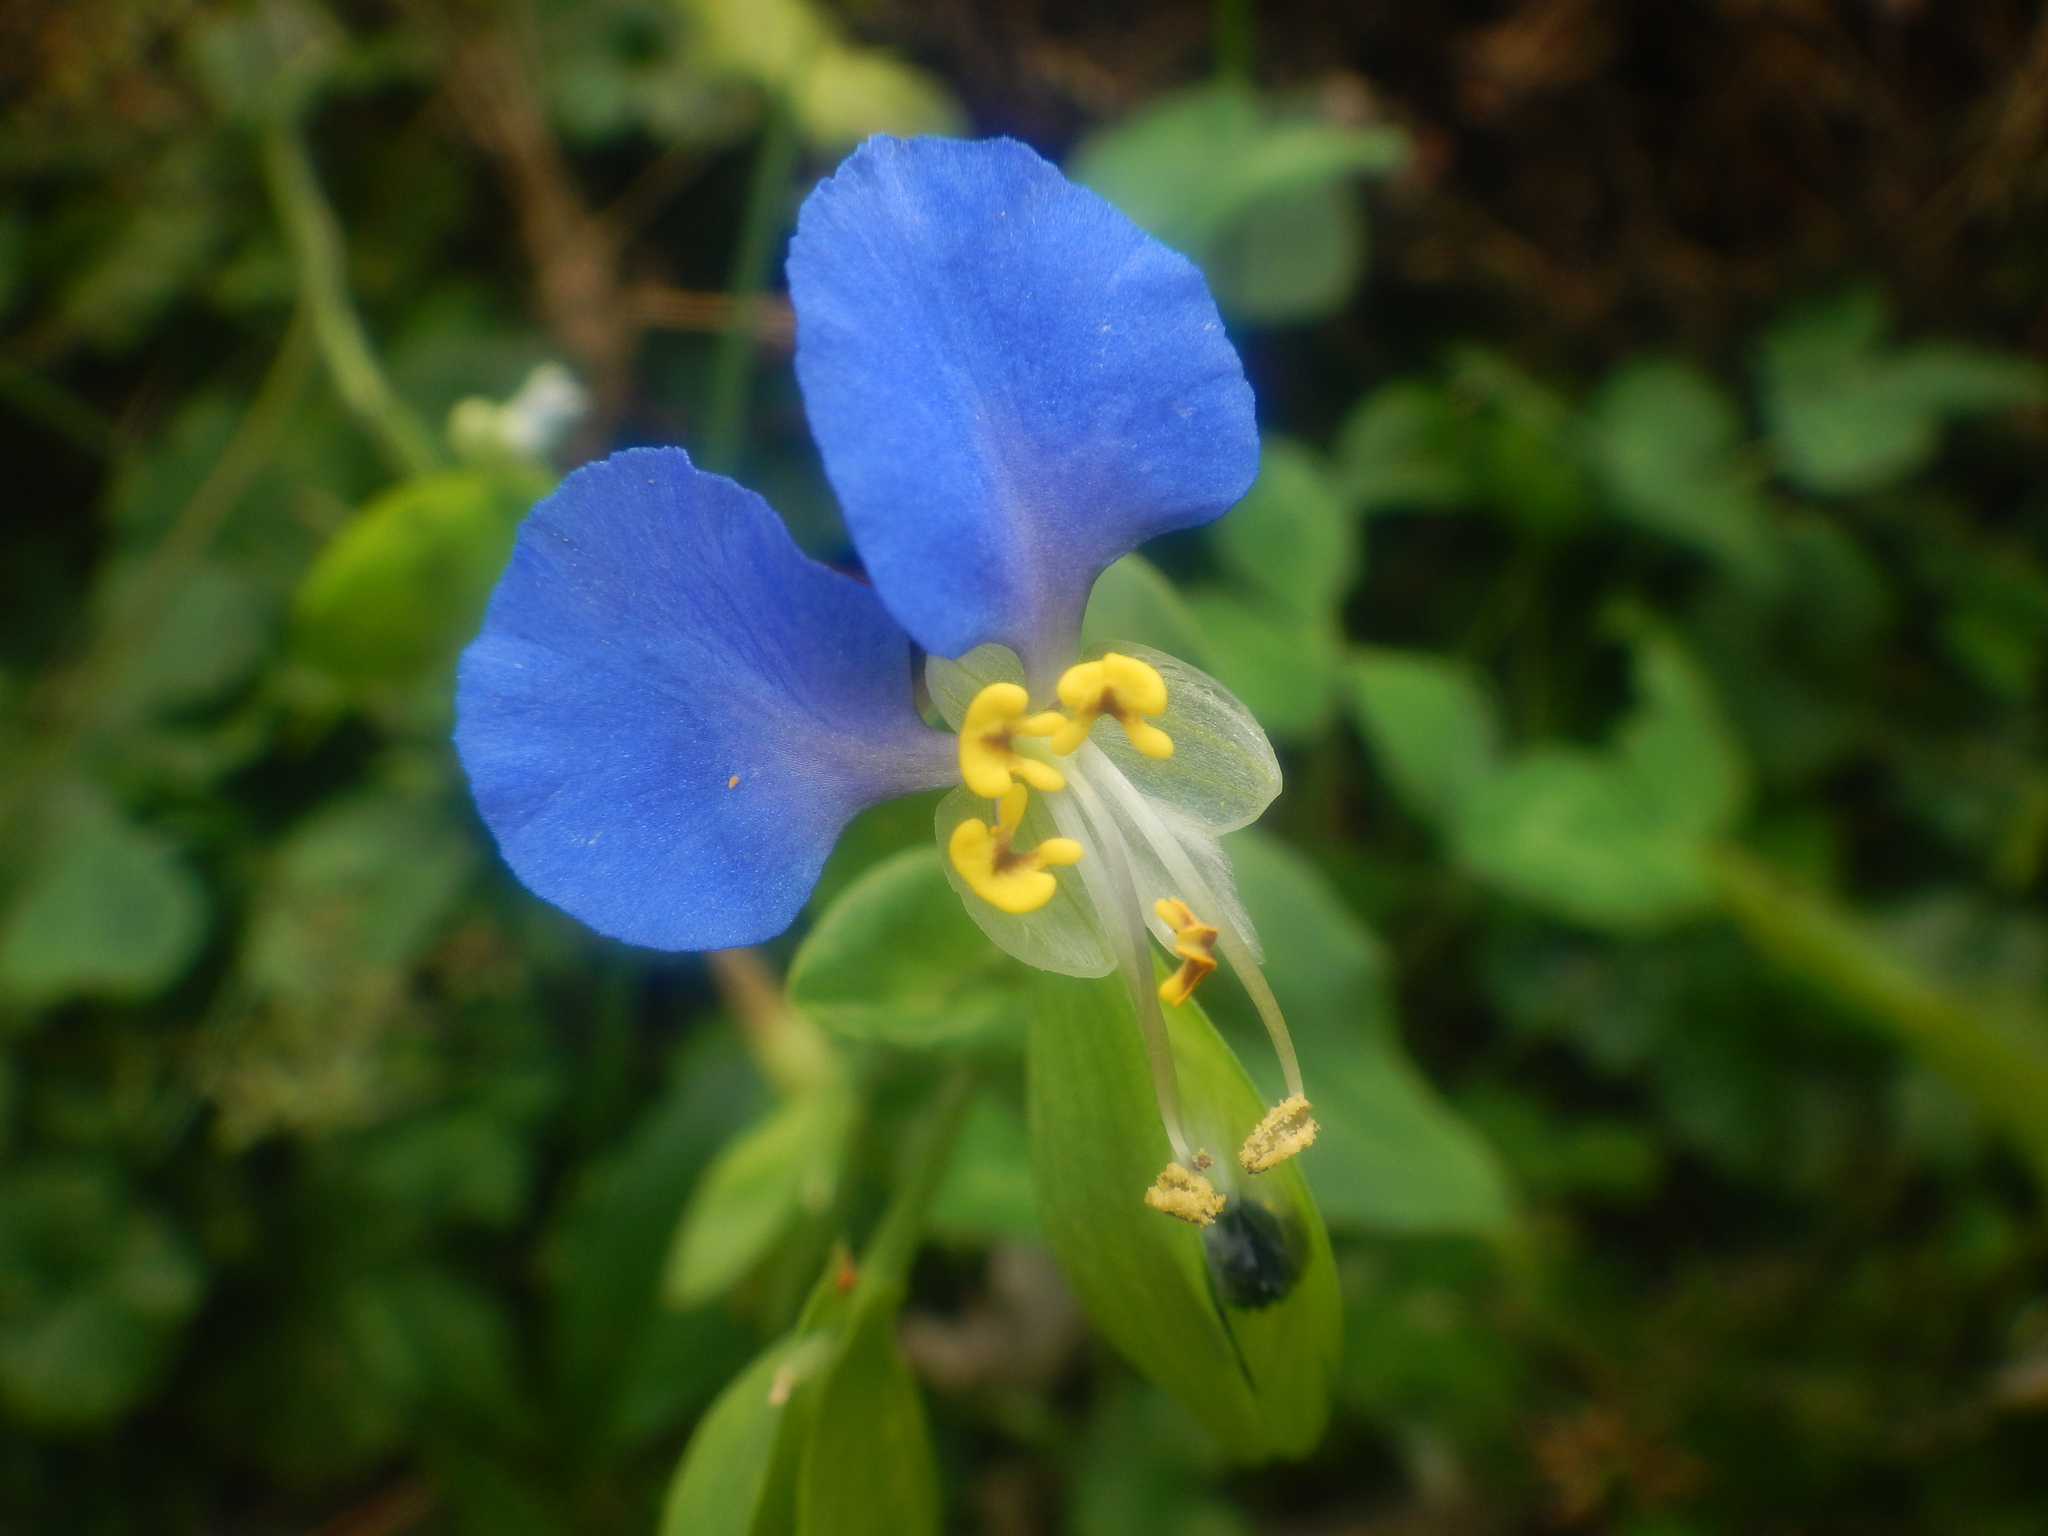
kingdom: Plantae
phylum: Tracheophyta
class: Liliopsida
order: Commelinales
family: Commelinaceae
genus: Commelina
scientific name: Commelina communis
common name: Asiatic dayflower
